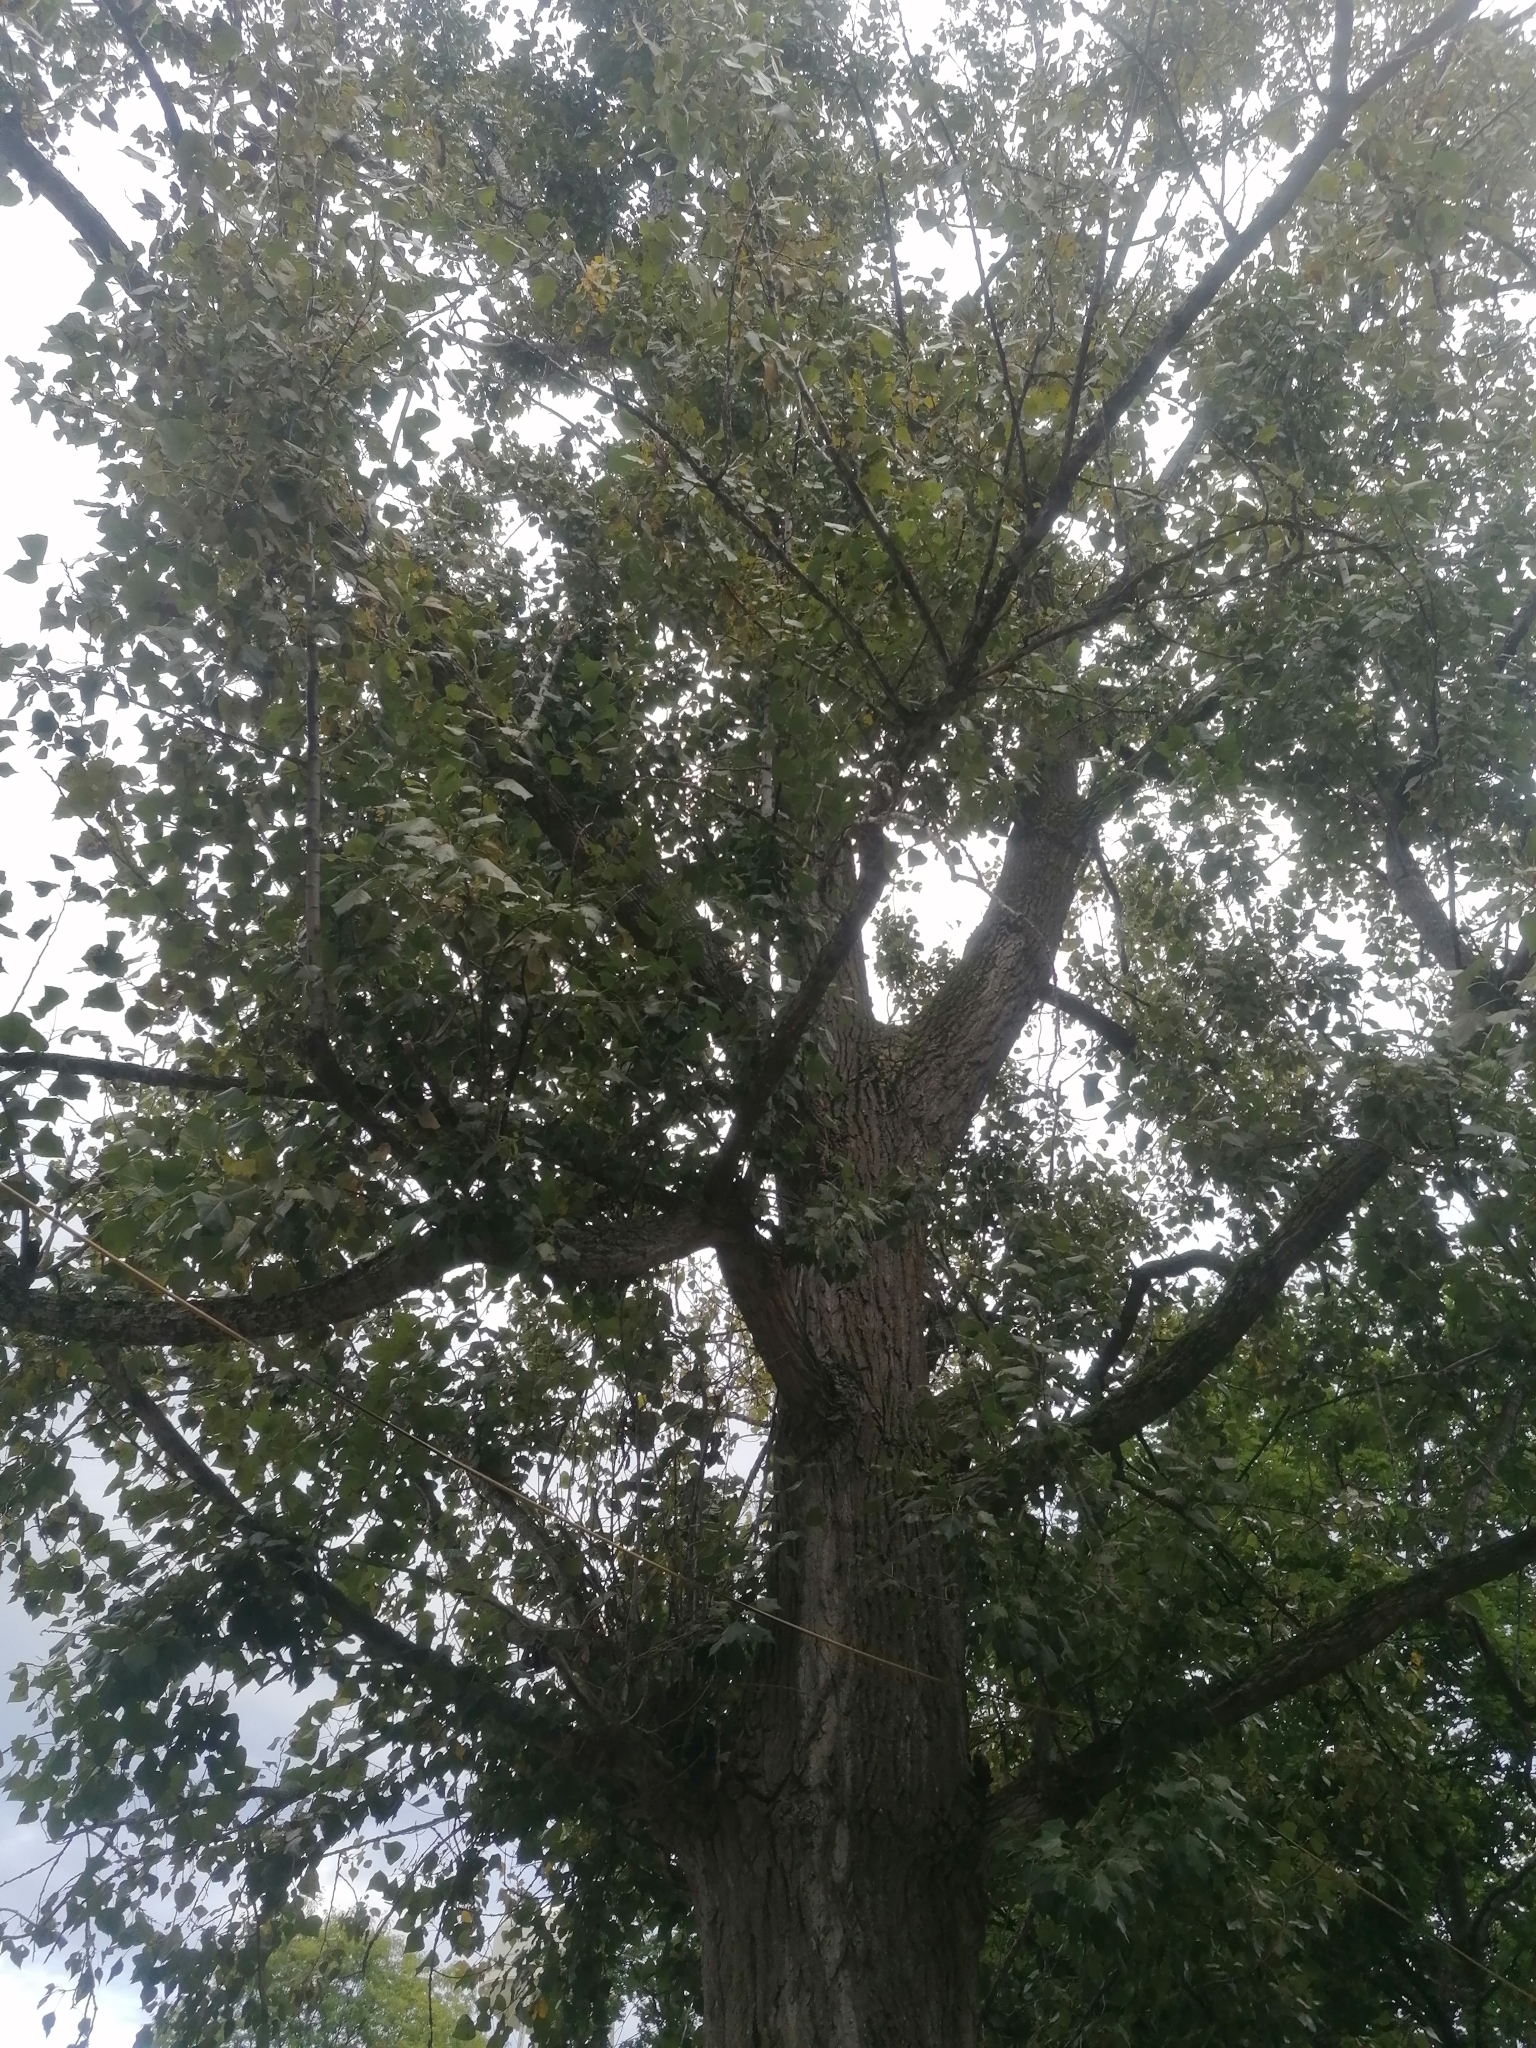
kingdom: Plantae
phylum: Tracheophyta
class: Magnoliopsida
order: Malpighiales
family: Salicaceae
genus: Populus
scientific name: Populus deltoides
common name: Eastern cottonwood
